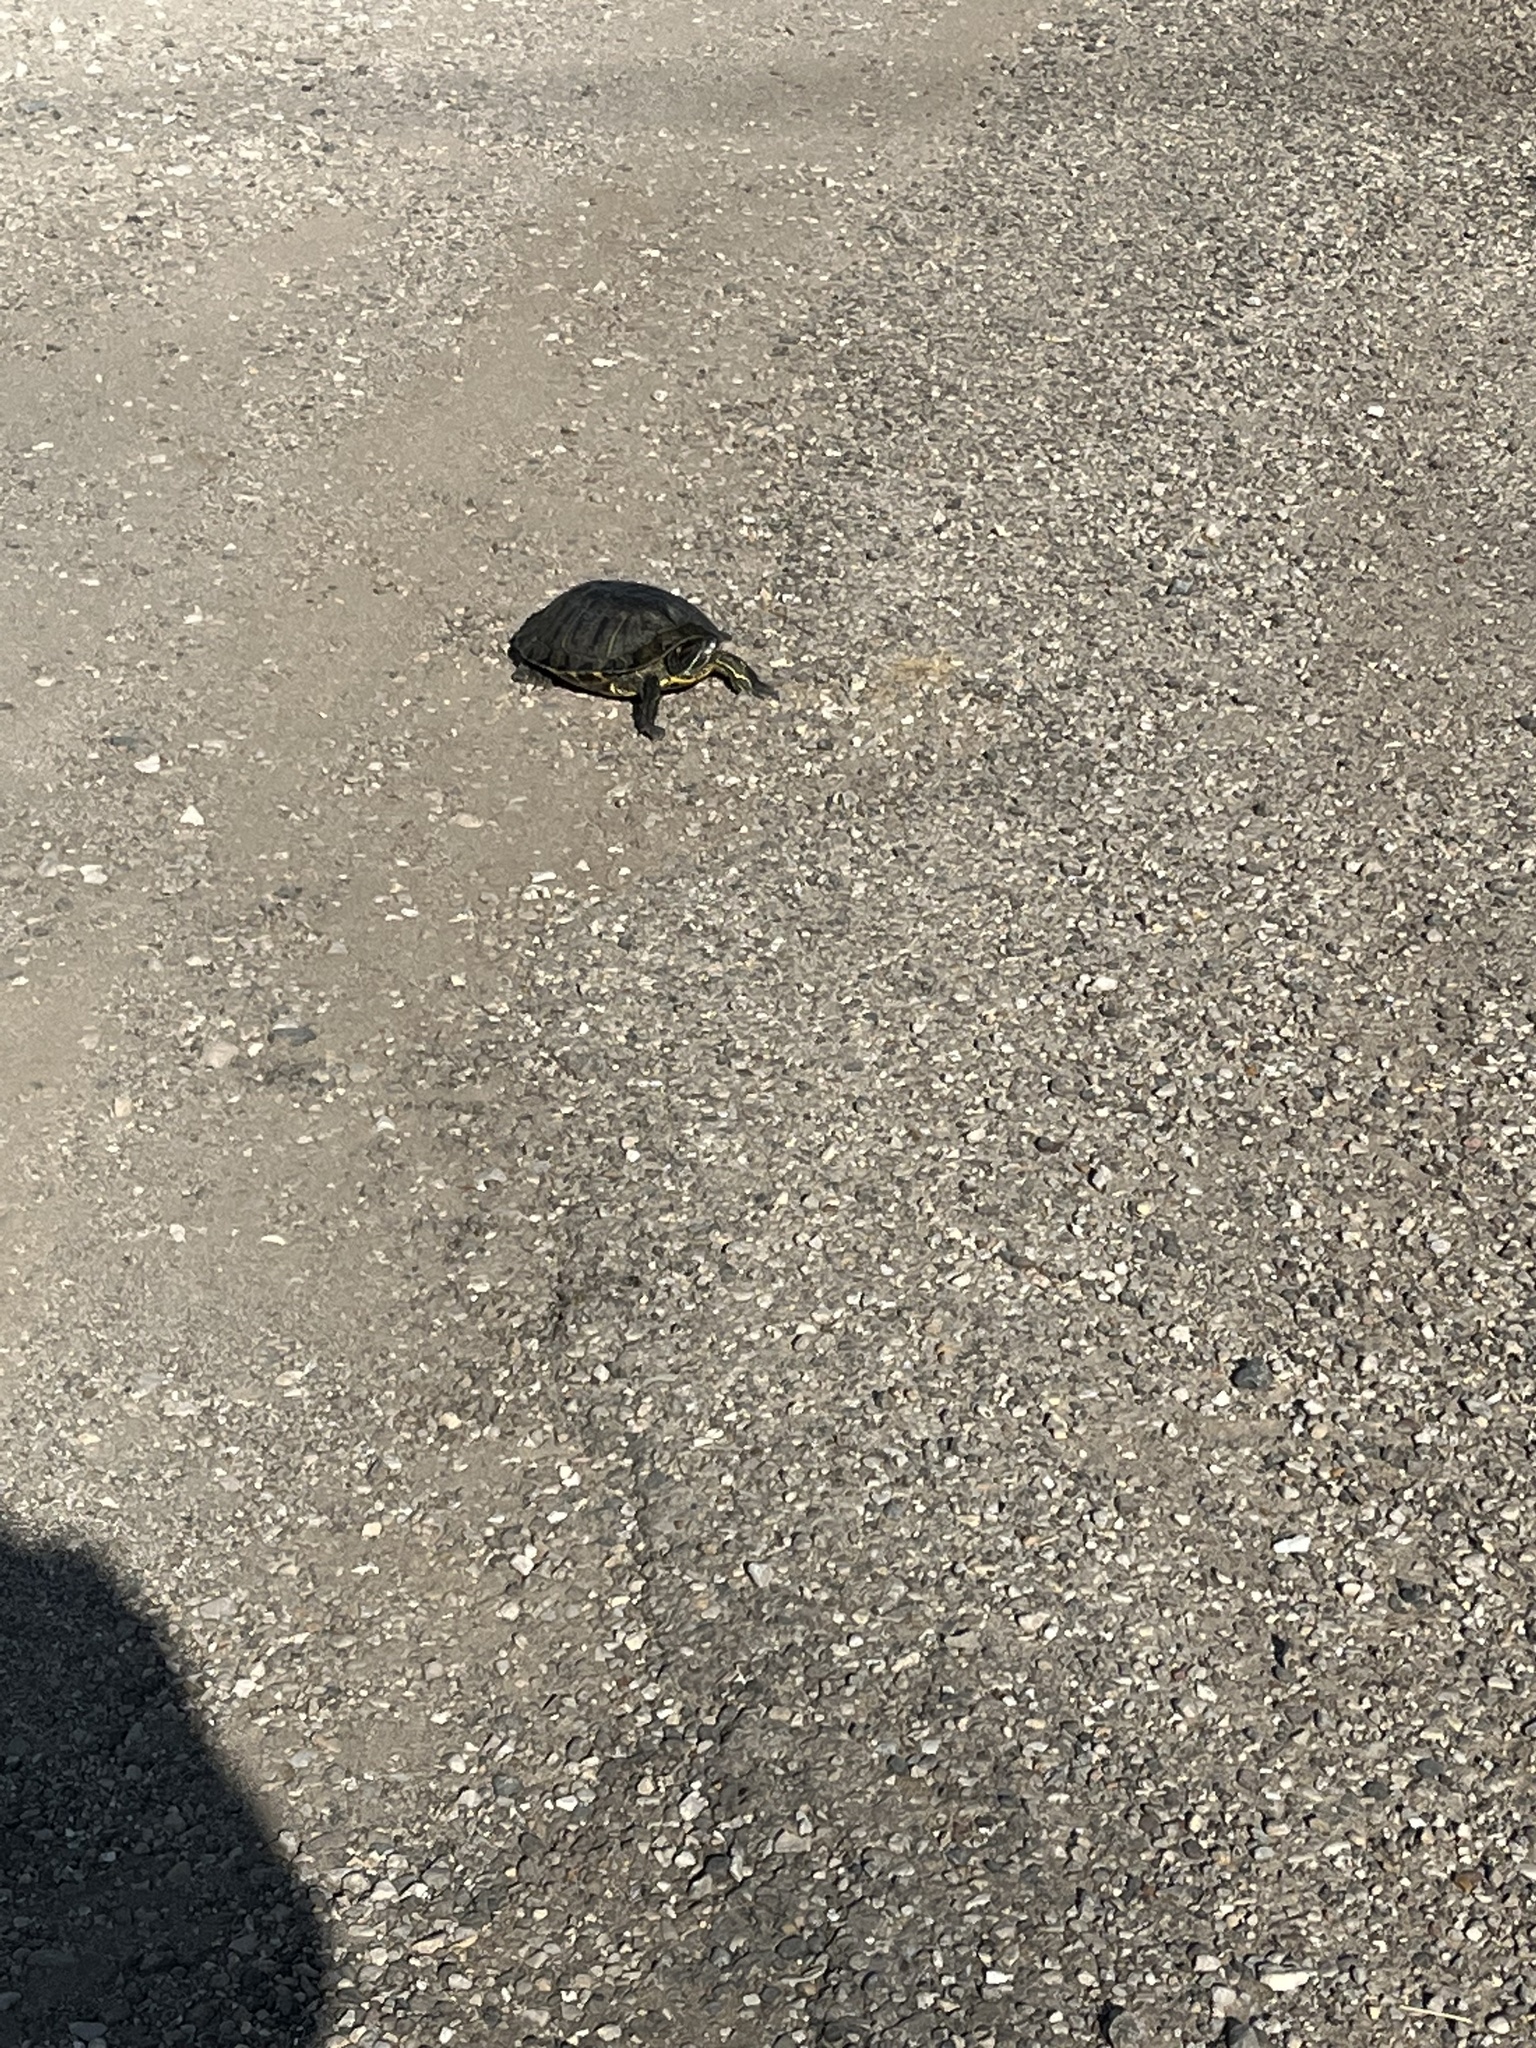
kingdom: Animalia
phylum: Chordata
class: Testudines
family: Emydidae
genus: Trachemys
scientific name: Trachemys scripta
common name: Slider
